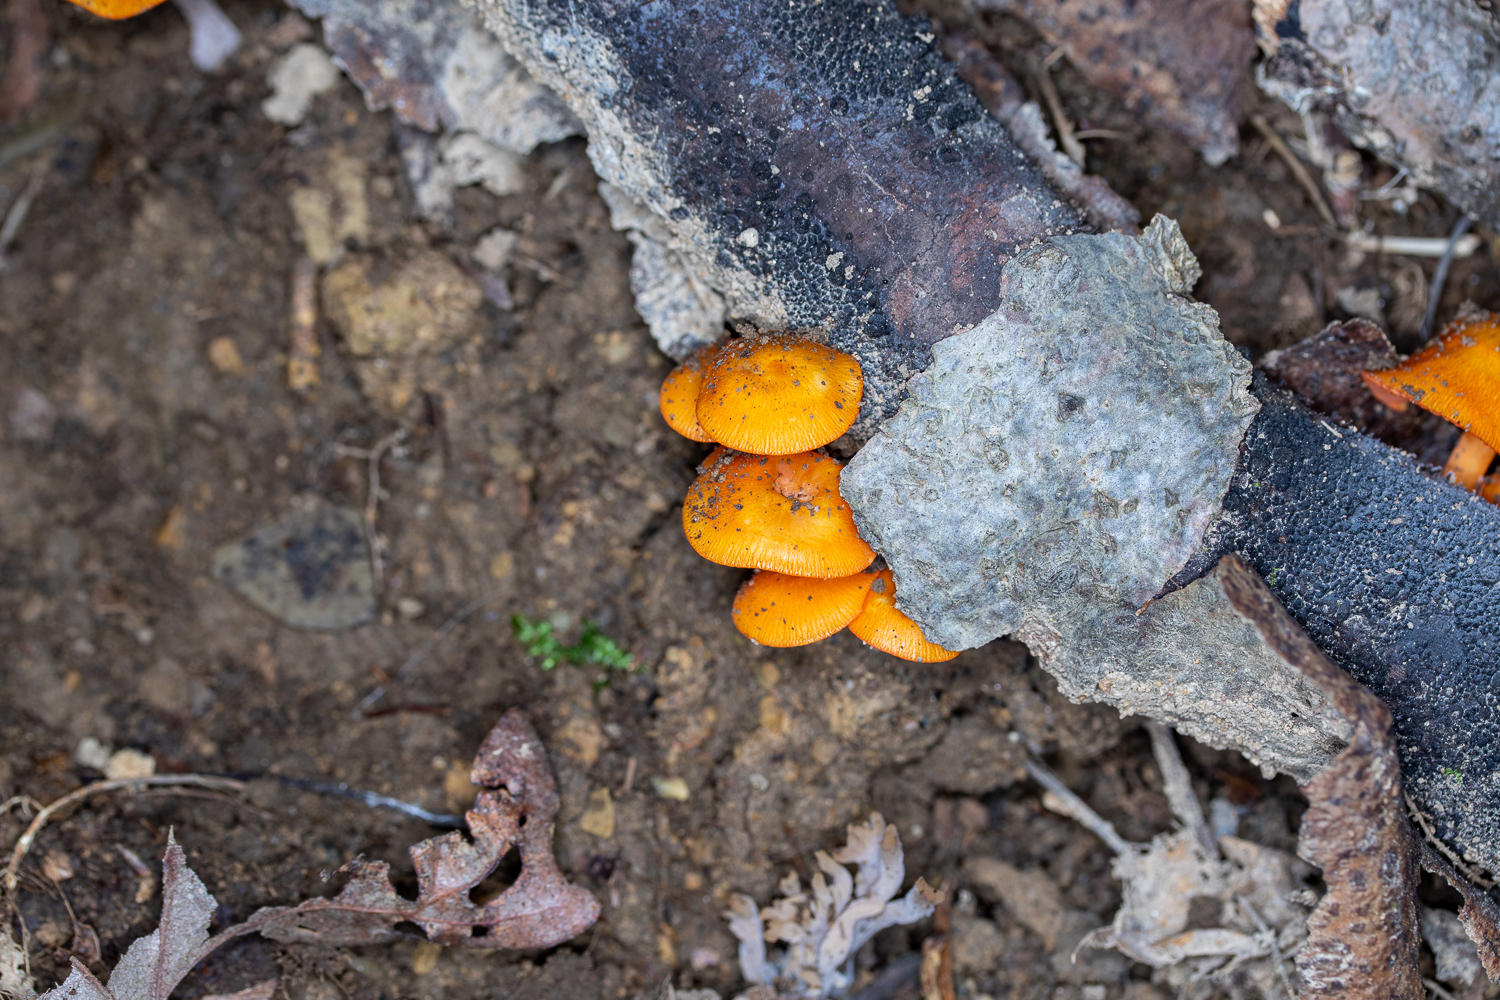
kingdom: Fungi
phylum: Basidiomycota
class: Agaricomycetes
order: Agaricales
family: Mycenaceae
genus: Mycena
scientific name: Mycena leaiana
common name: Orange mycena
